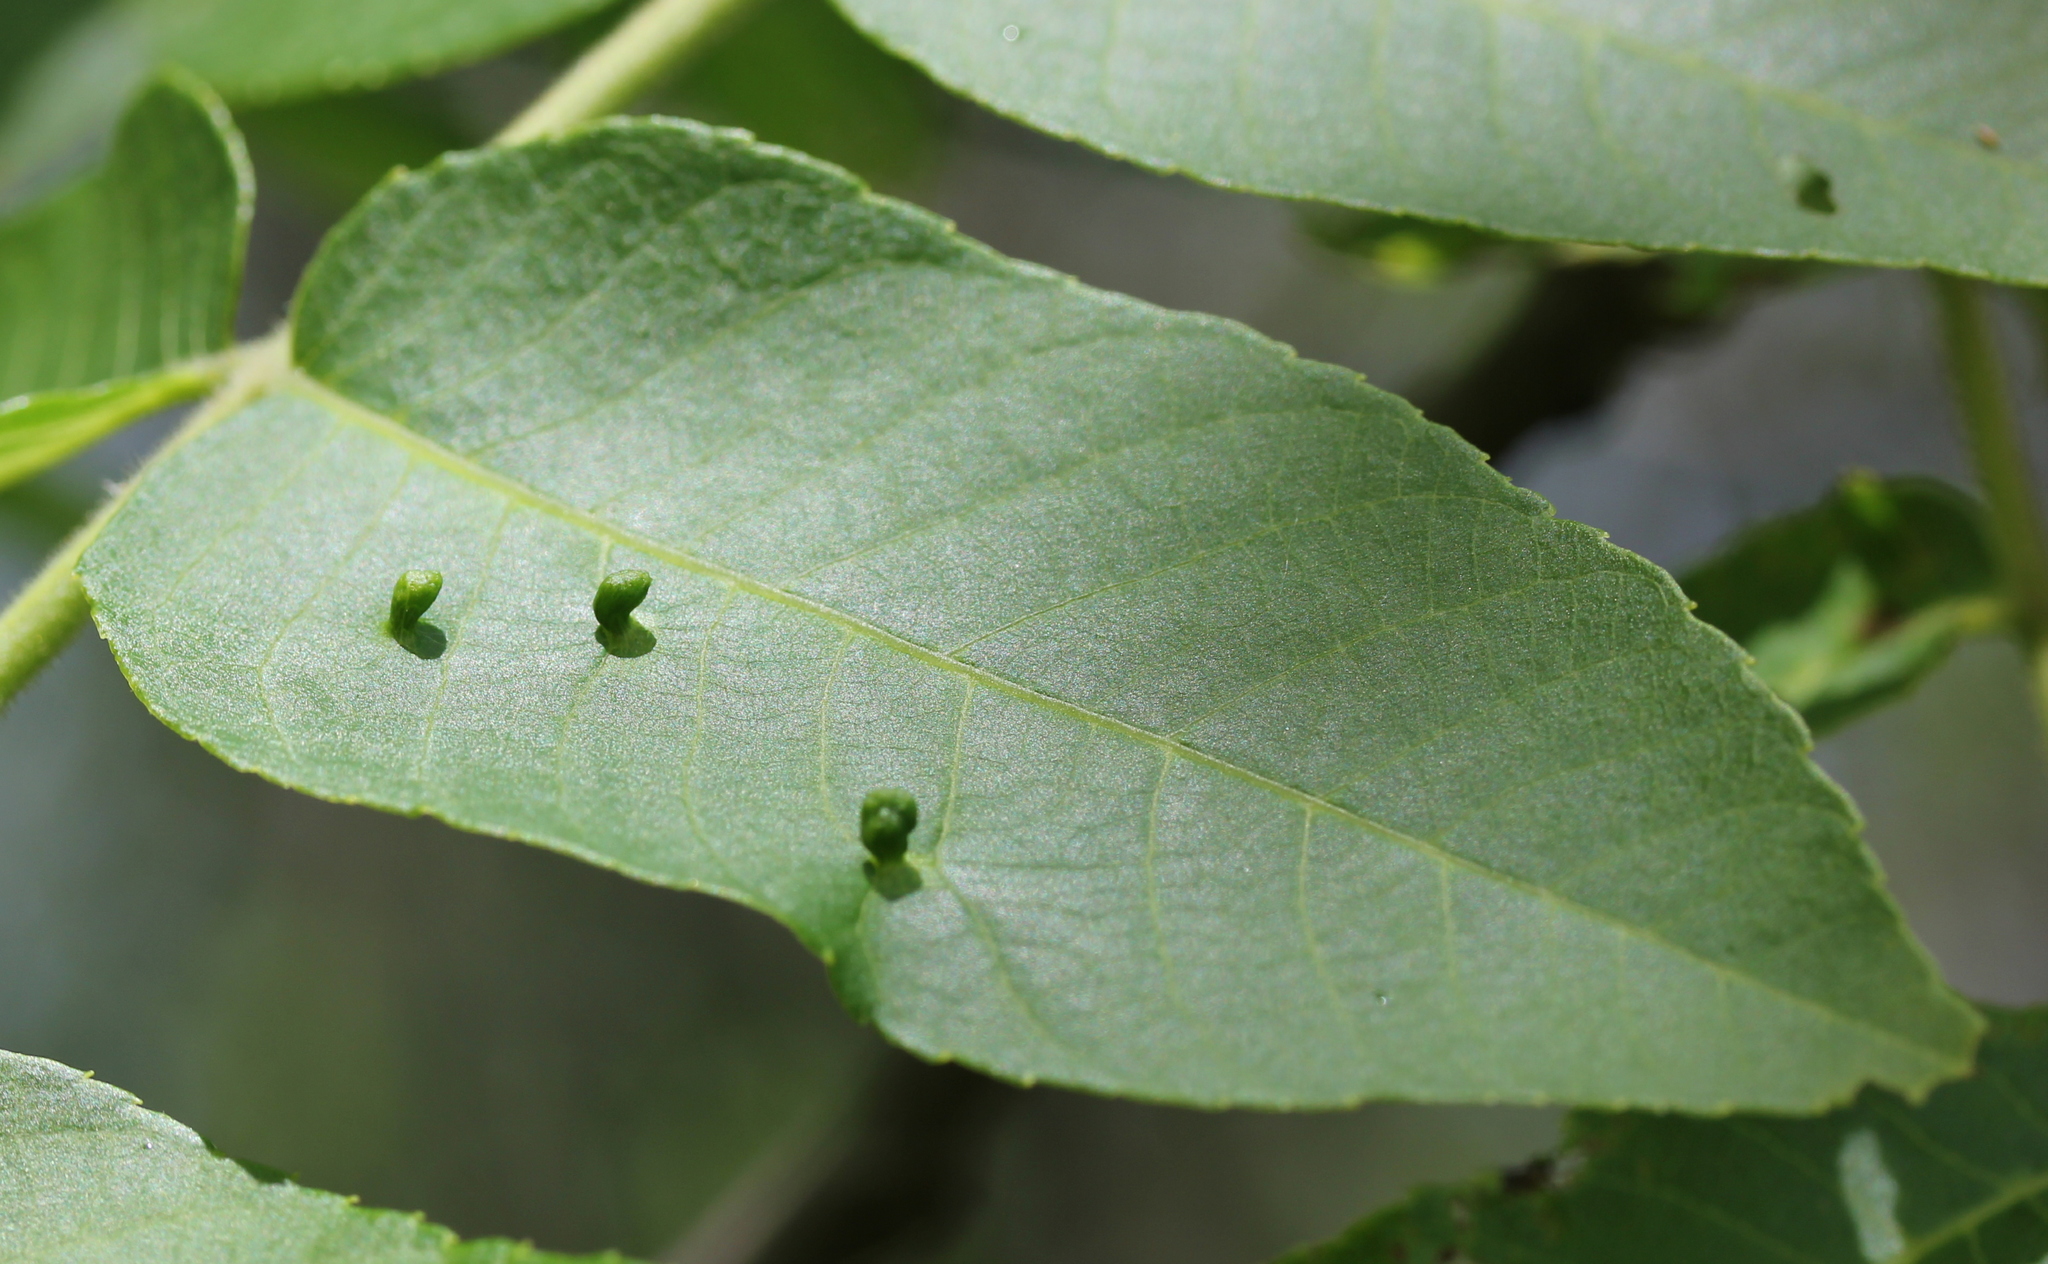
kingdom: Animalia
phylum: Arthropoda
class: Arachnida
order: Trombidiformes
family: Eriophyidae
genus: Aceria
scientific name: Aceria brachytarsus
